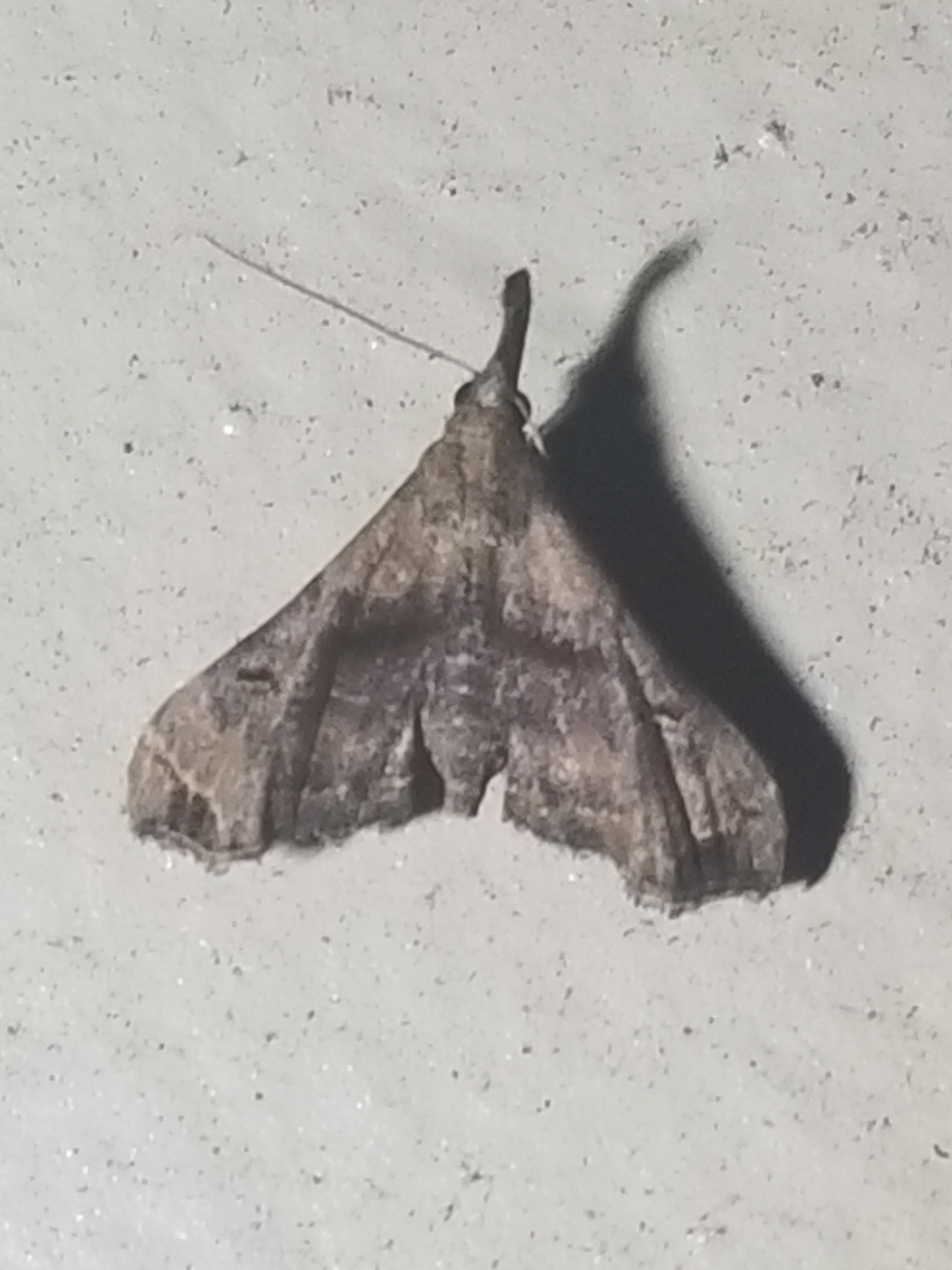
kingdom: Animalia
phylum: Arthropoda
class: Insecta
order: Lepidoptera
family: Erebidae
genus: Palthis
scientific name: Palthis asopialis
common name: Faint-spotted palthis moth
